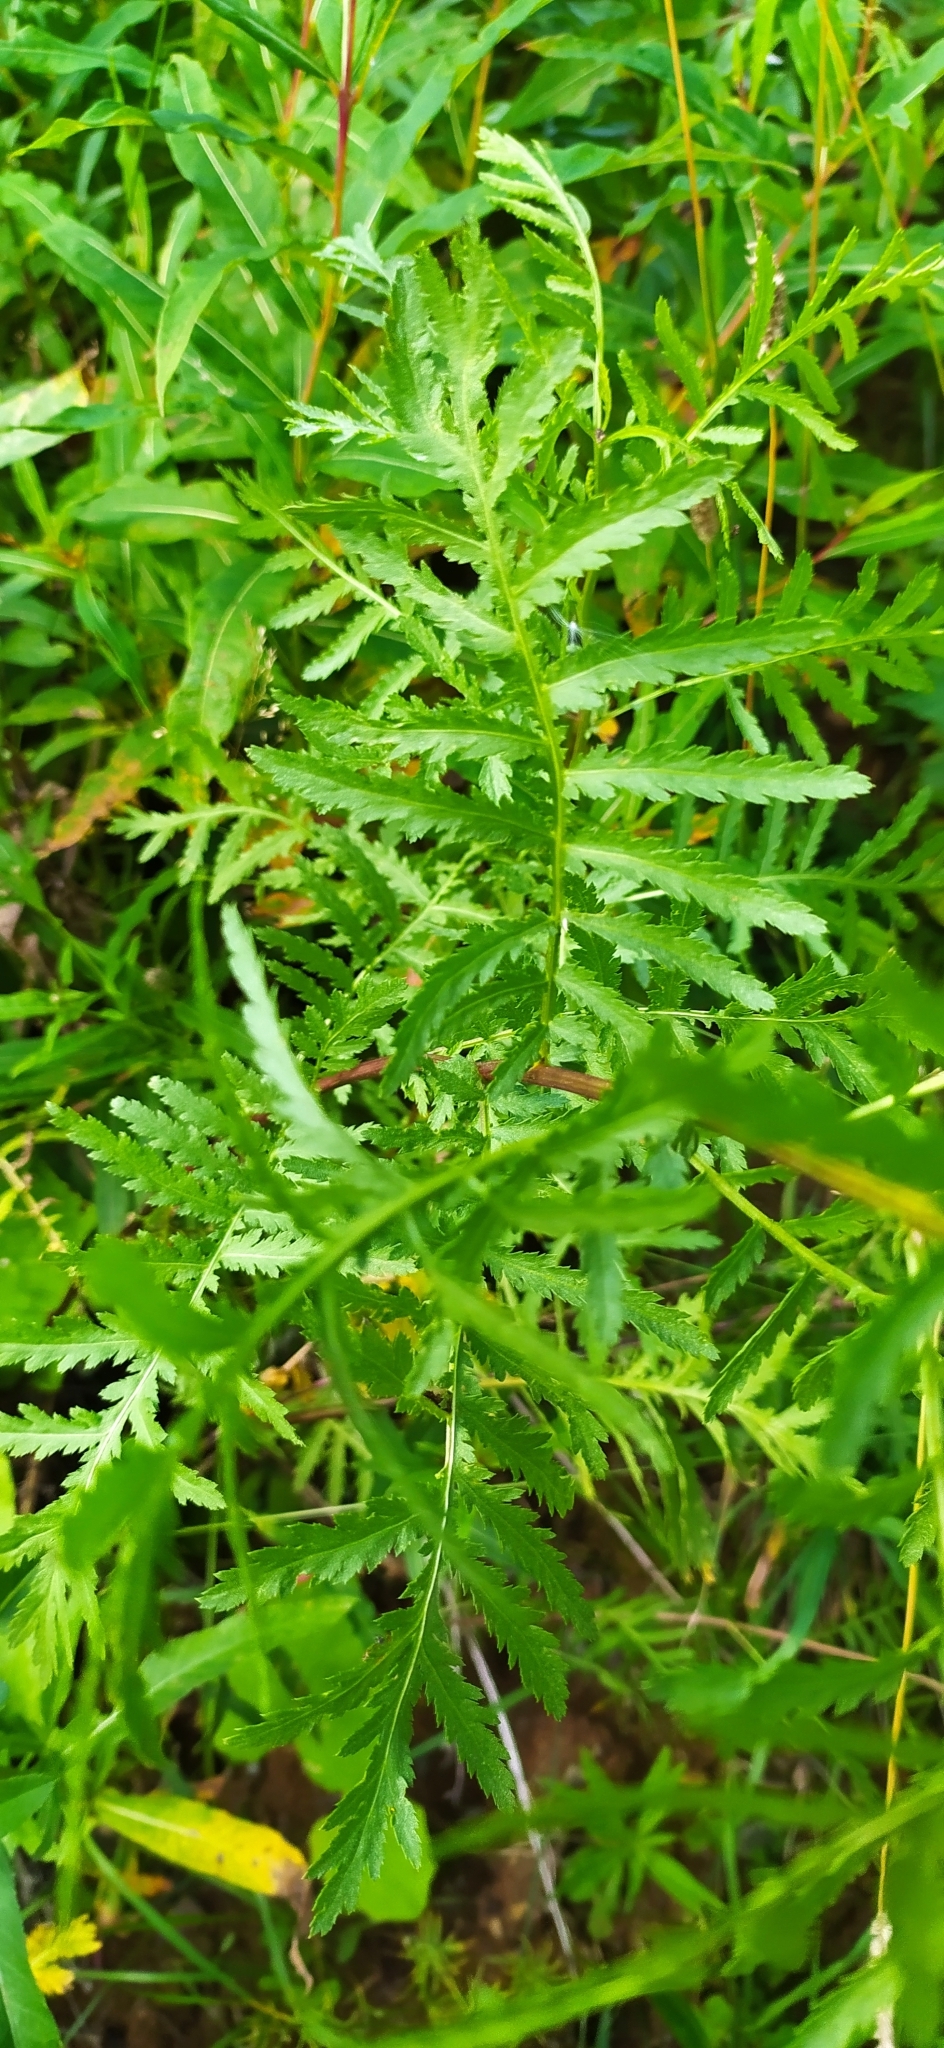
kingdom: Plantae
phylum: Tracheophyta
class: Magnoliopsida
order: Asterales
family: Asteraceae
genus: Tanacetum
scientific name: Tanacetum vulgare
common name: Common tansy
